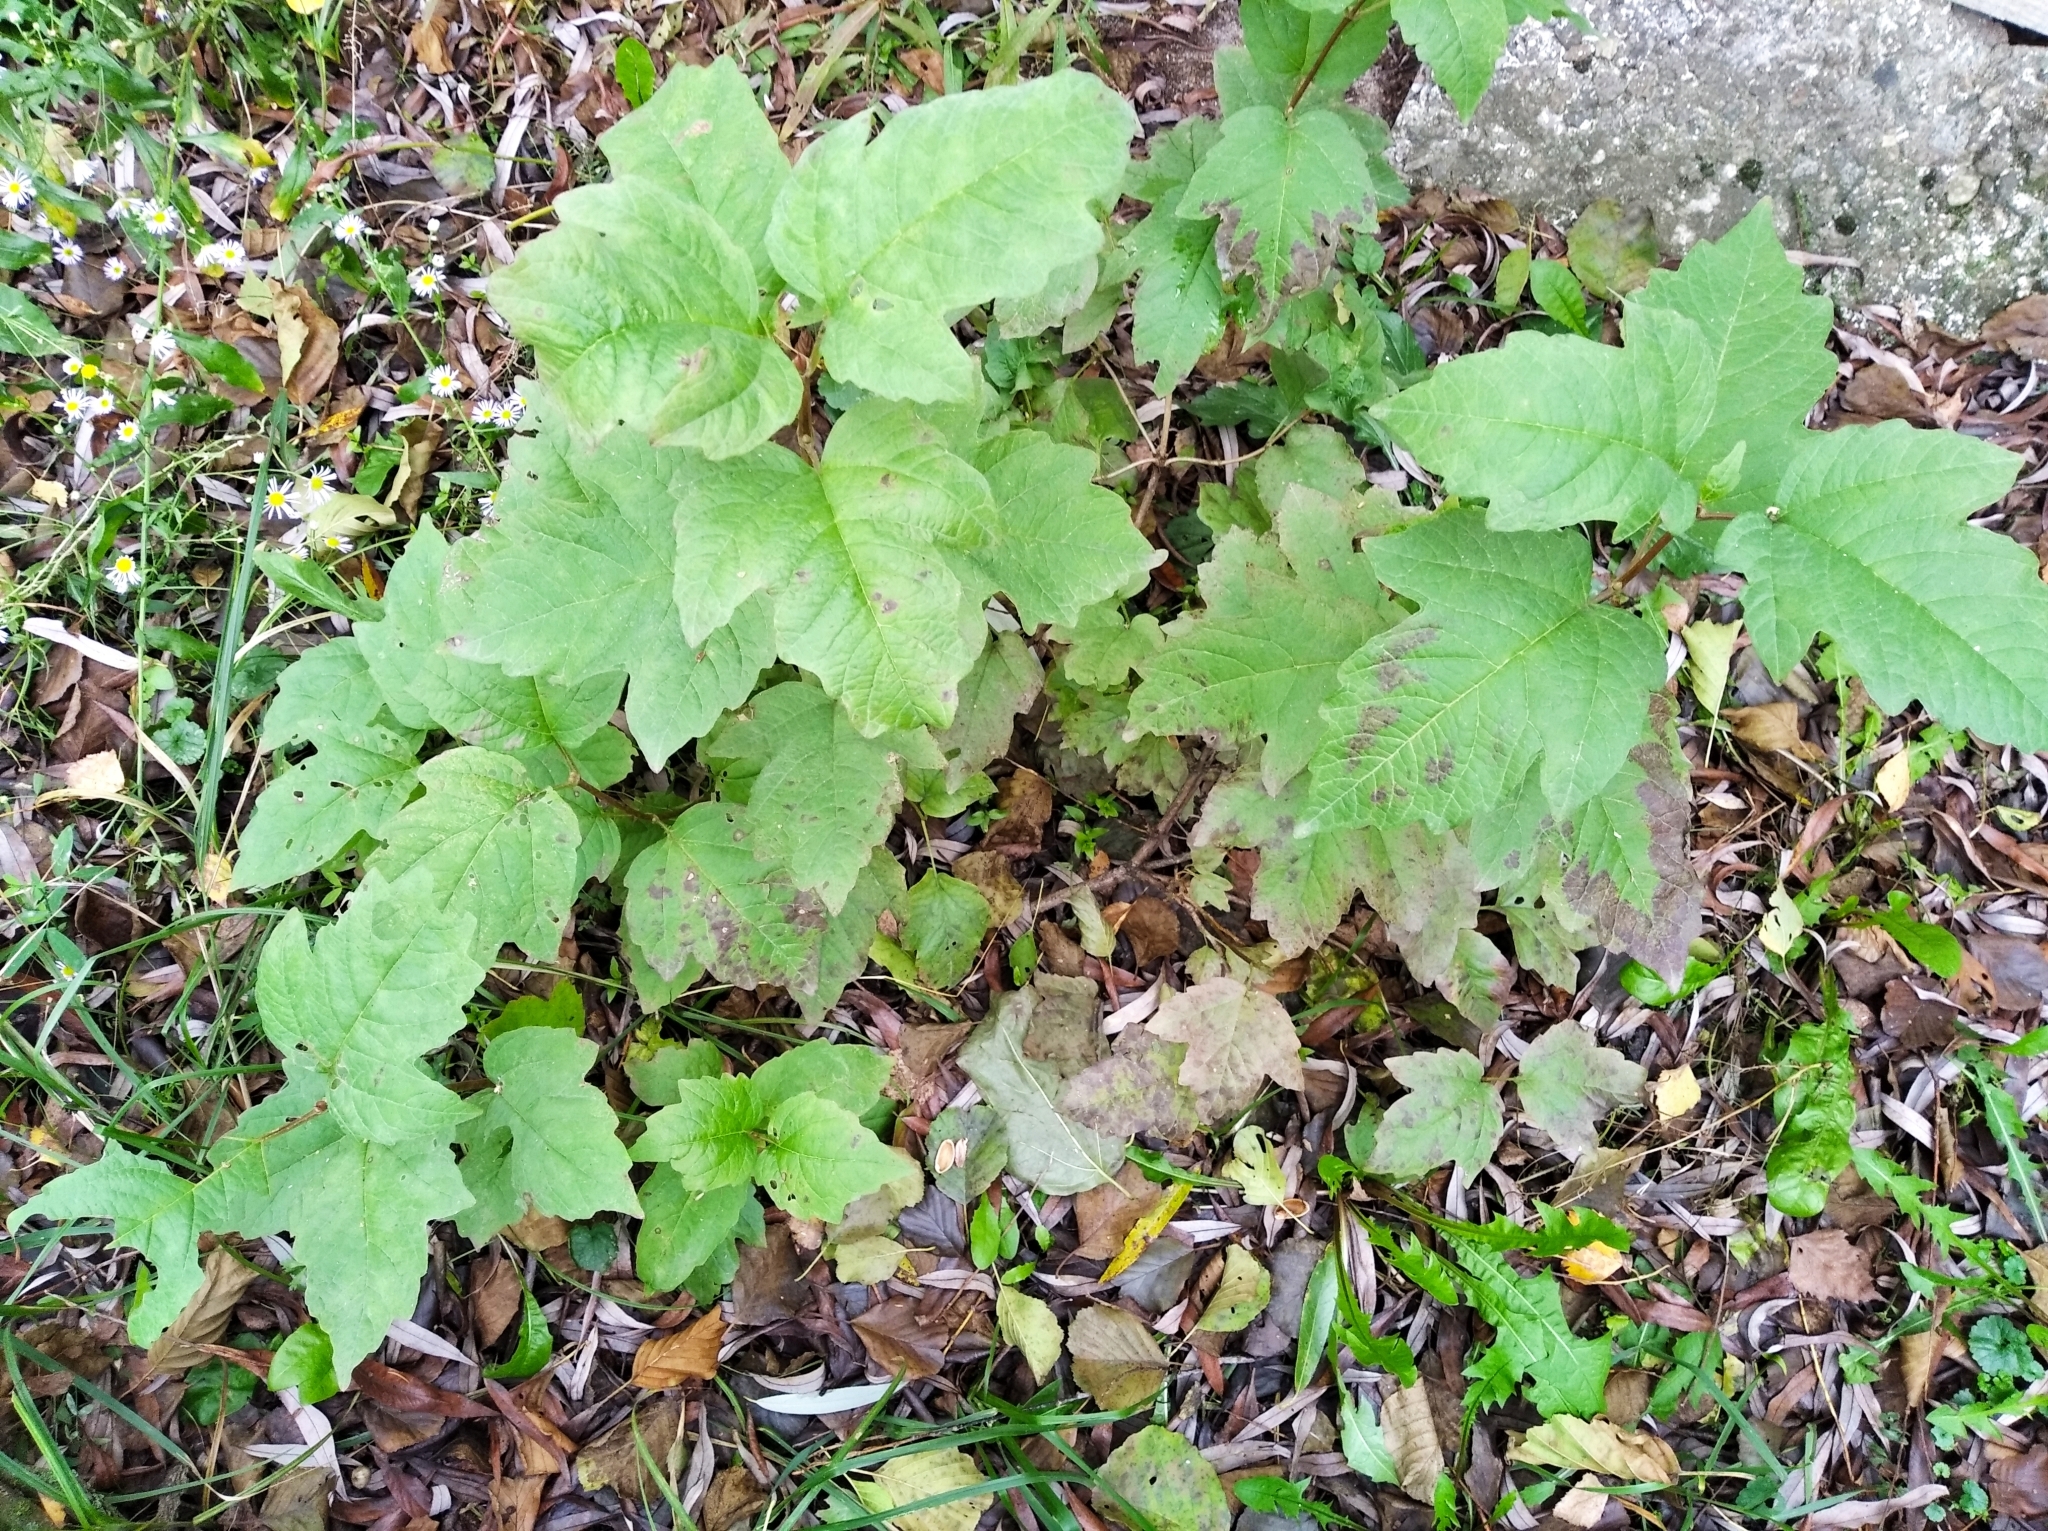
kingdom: Plantae
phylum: Tracheophyta
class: Magnoliopsida
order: Dipsacales
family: Viburnaceae
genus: Viburnum
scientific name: Viburnum opulus
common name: Guelder-rose
